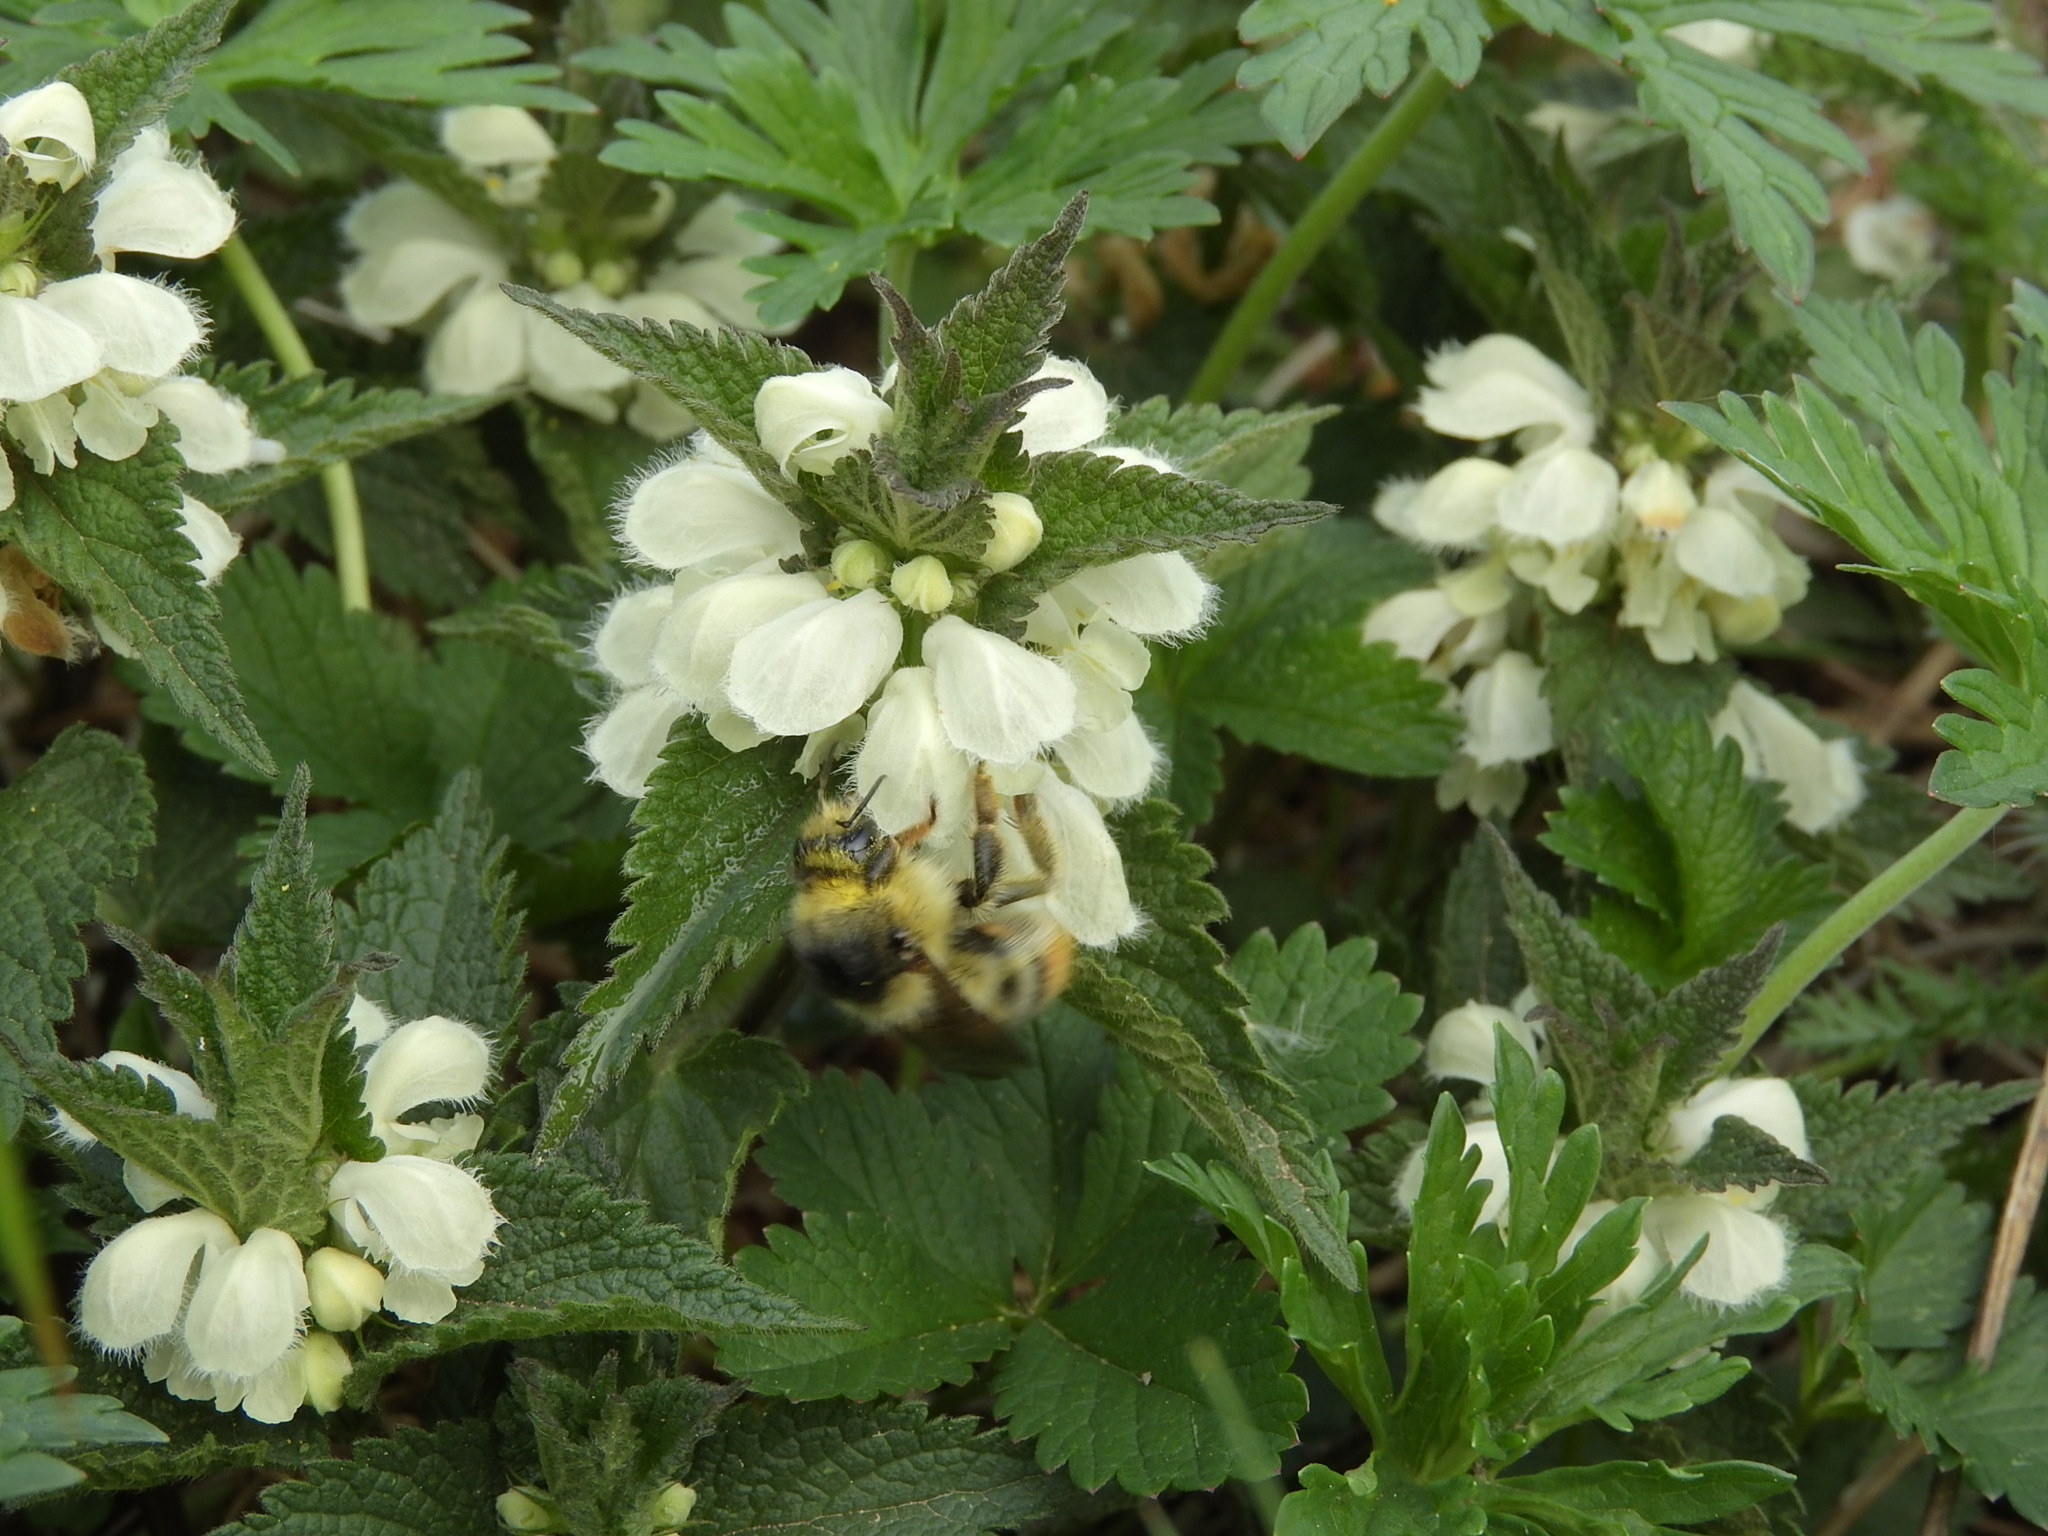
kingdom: Animalia
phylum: Arthropoda
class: Insecta
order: Hymenoptera
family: Apidae
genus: Bombus
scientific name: Bombus sylvarum
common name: Shrill carder bee
